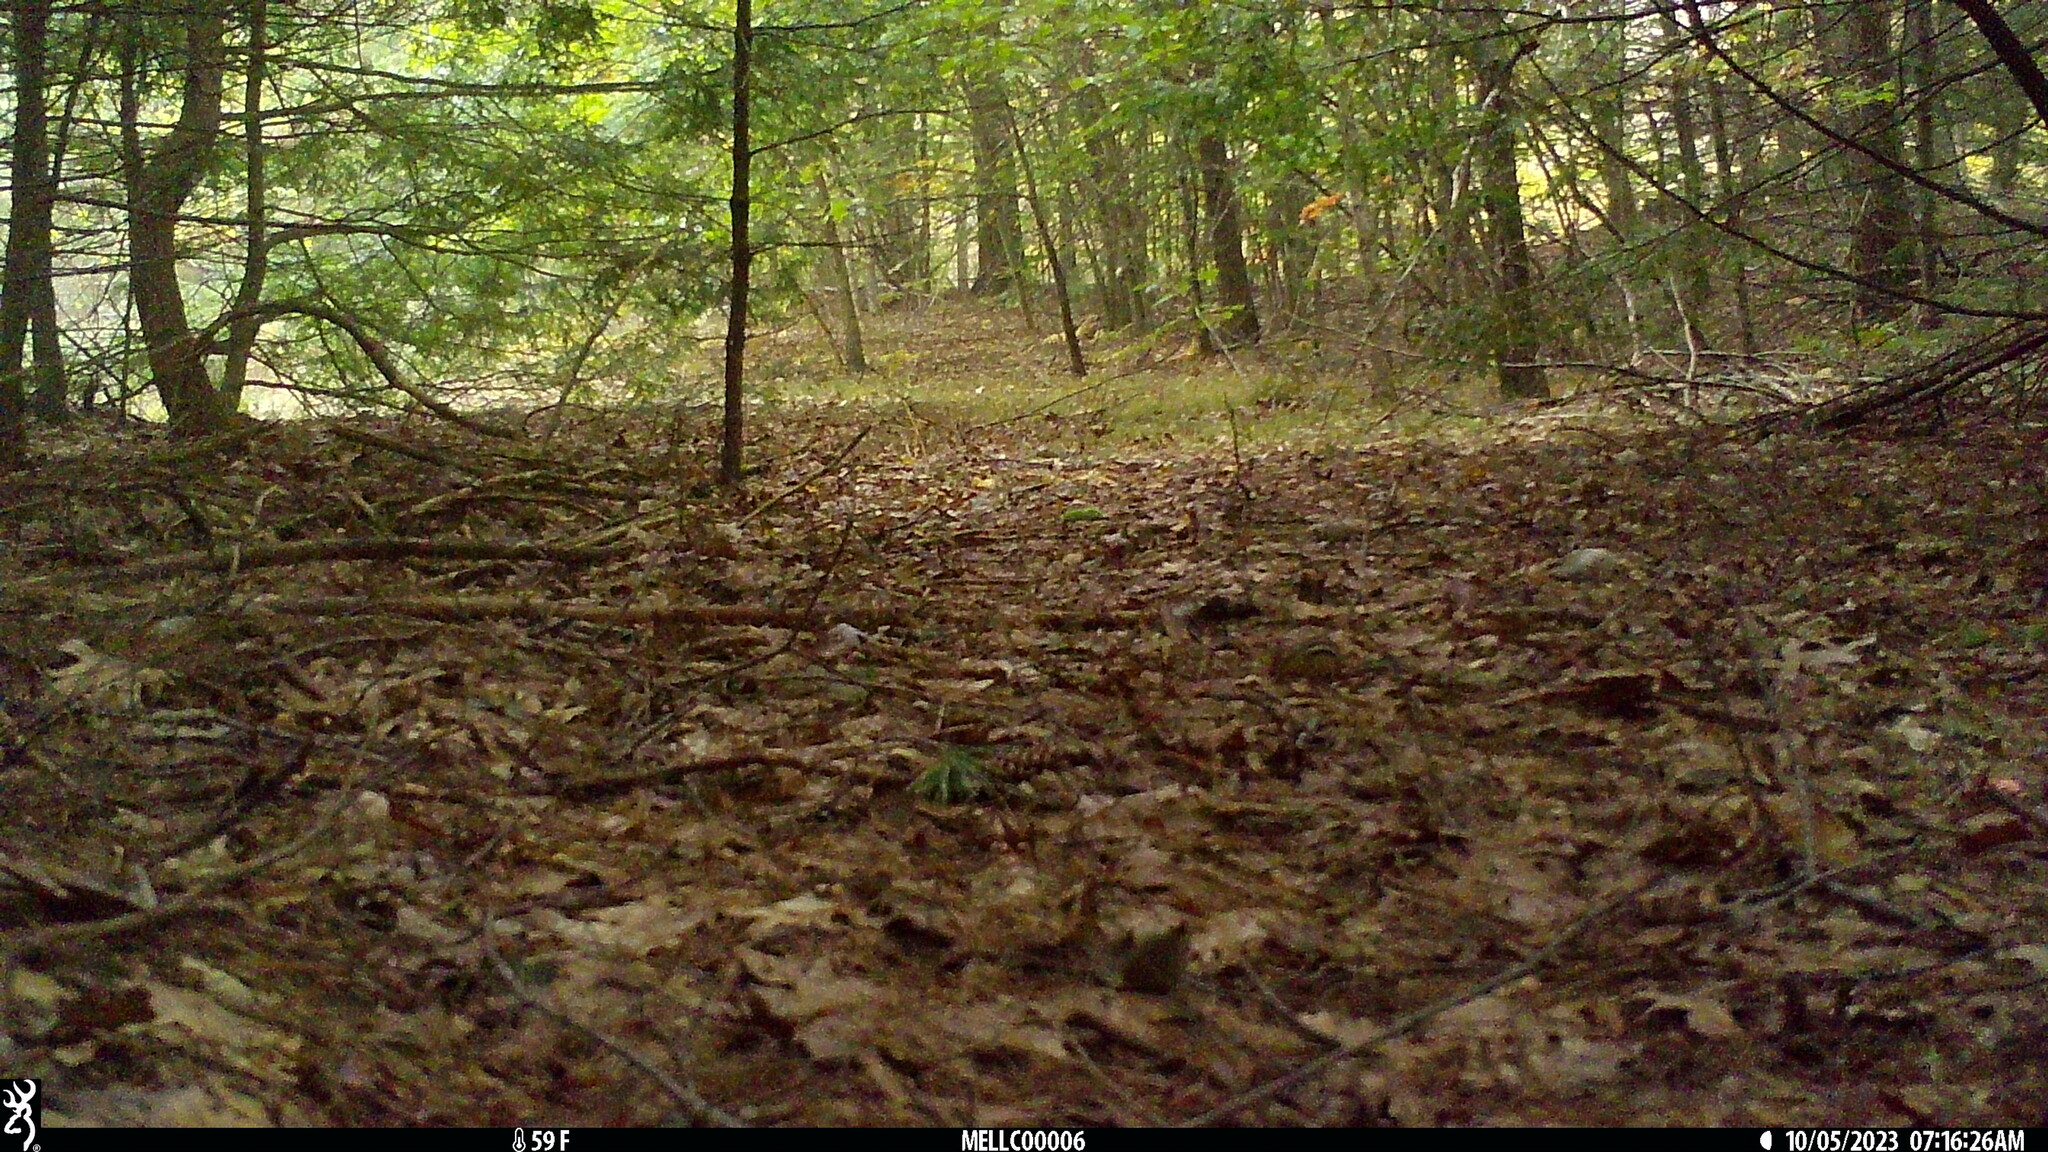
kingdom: Animalia
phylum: Chordata
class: Mammalia
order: Rodentia
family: Sciuridae
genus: Tamias
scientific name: Tamias striatus
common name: Eastern chipmunk
